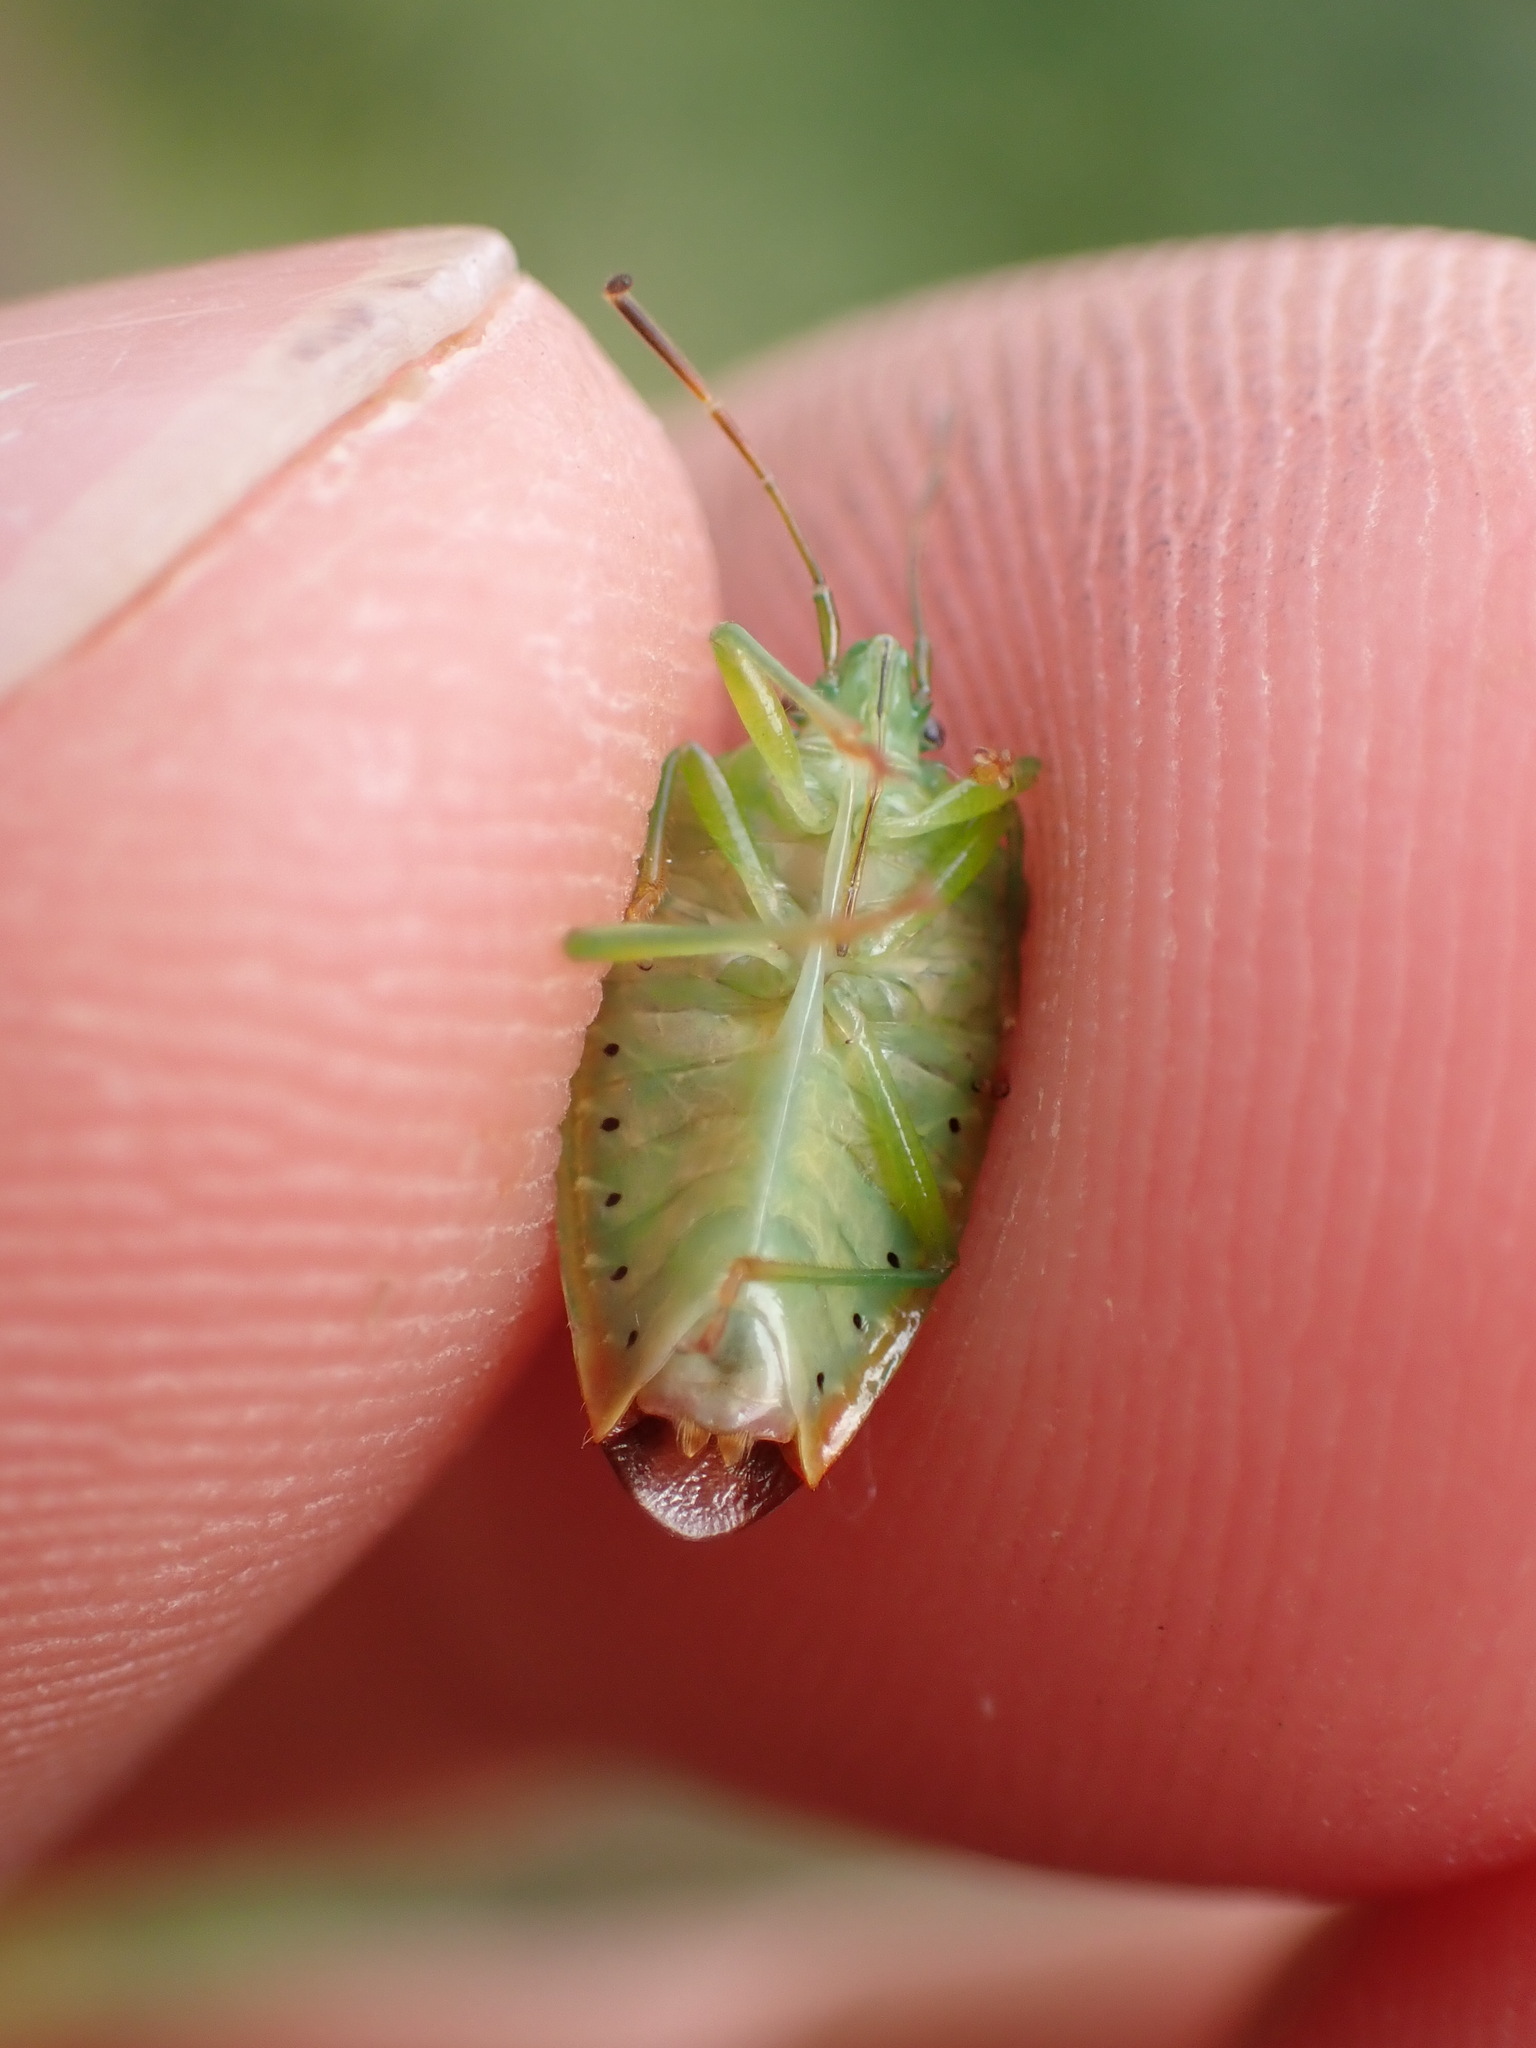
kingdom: Animalia
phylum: Arthropoda
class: Insecta
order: Hemiptera
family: Acanthosomatidae
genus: Elasmostethus
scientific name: Elasmostethus minor
